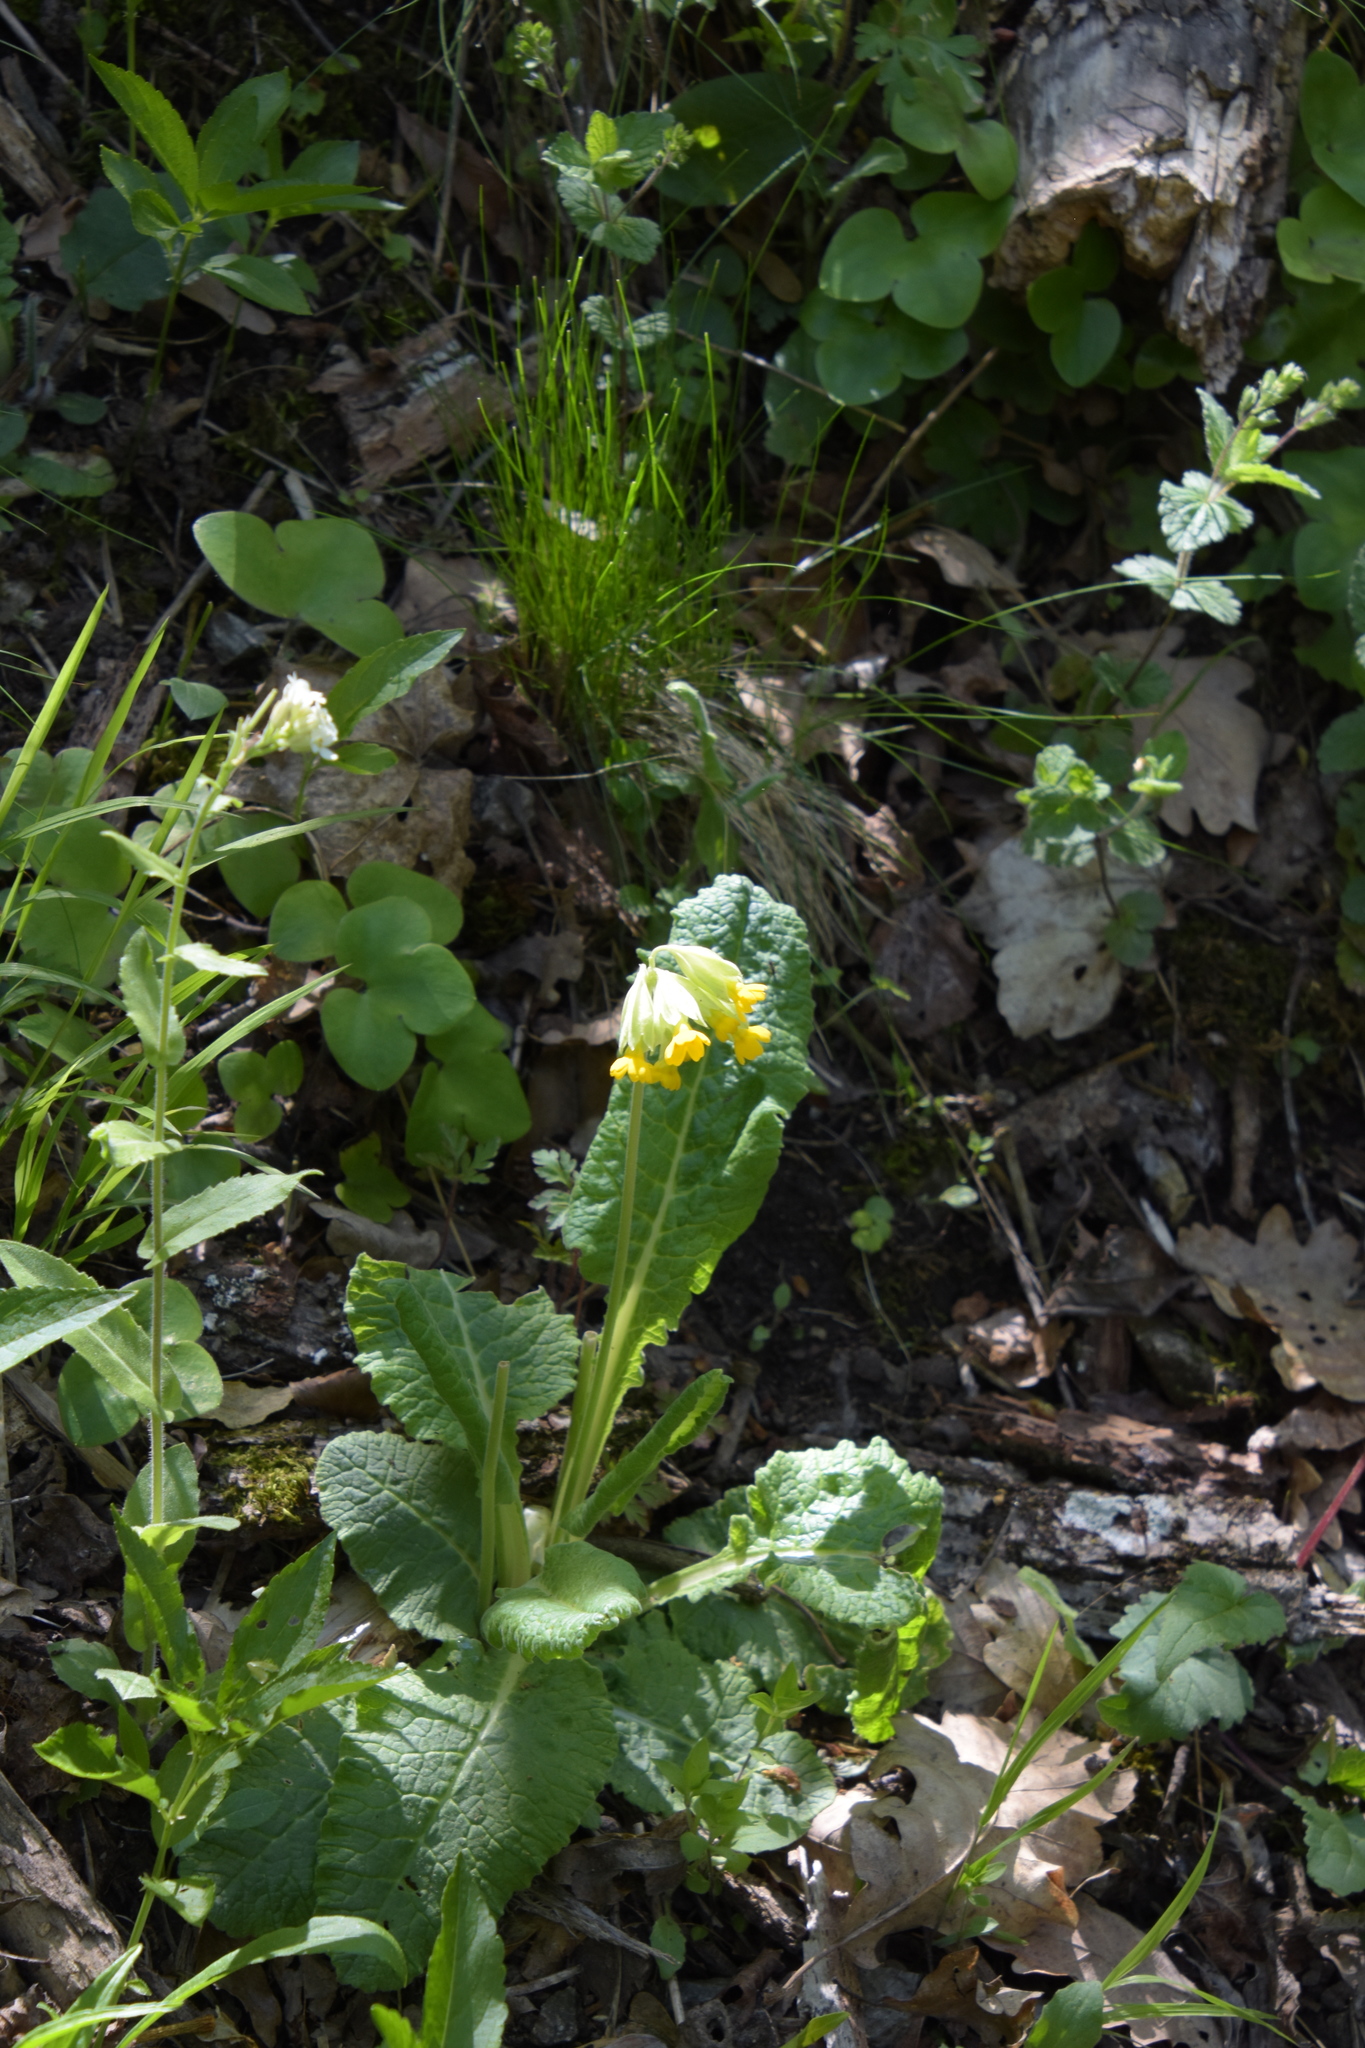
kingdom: Plantae
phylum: Tracheophyta
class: Magnoliopsida
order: Ericales
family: Primulaceae
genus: Primula
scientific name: Primula veris
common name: Cowslip
